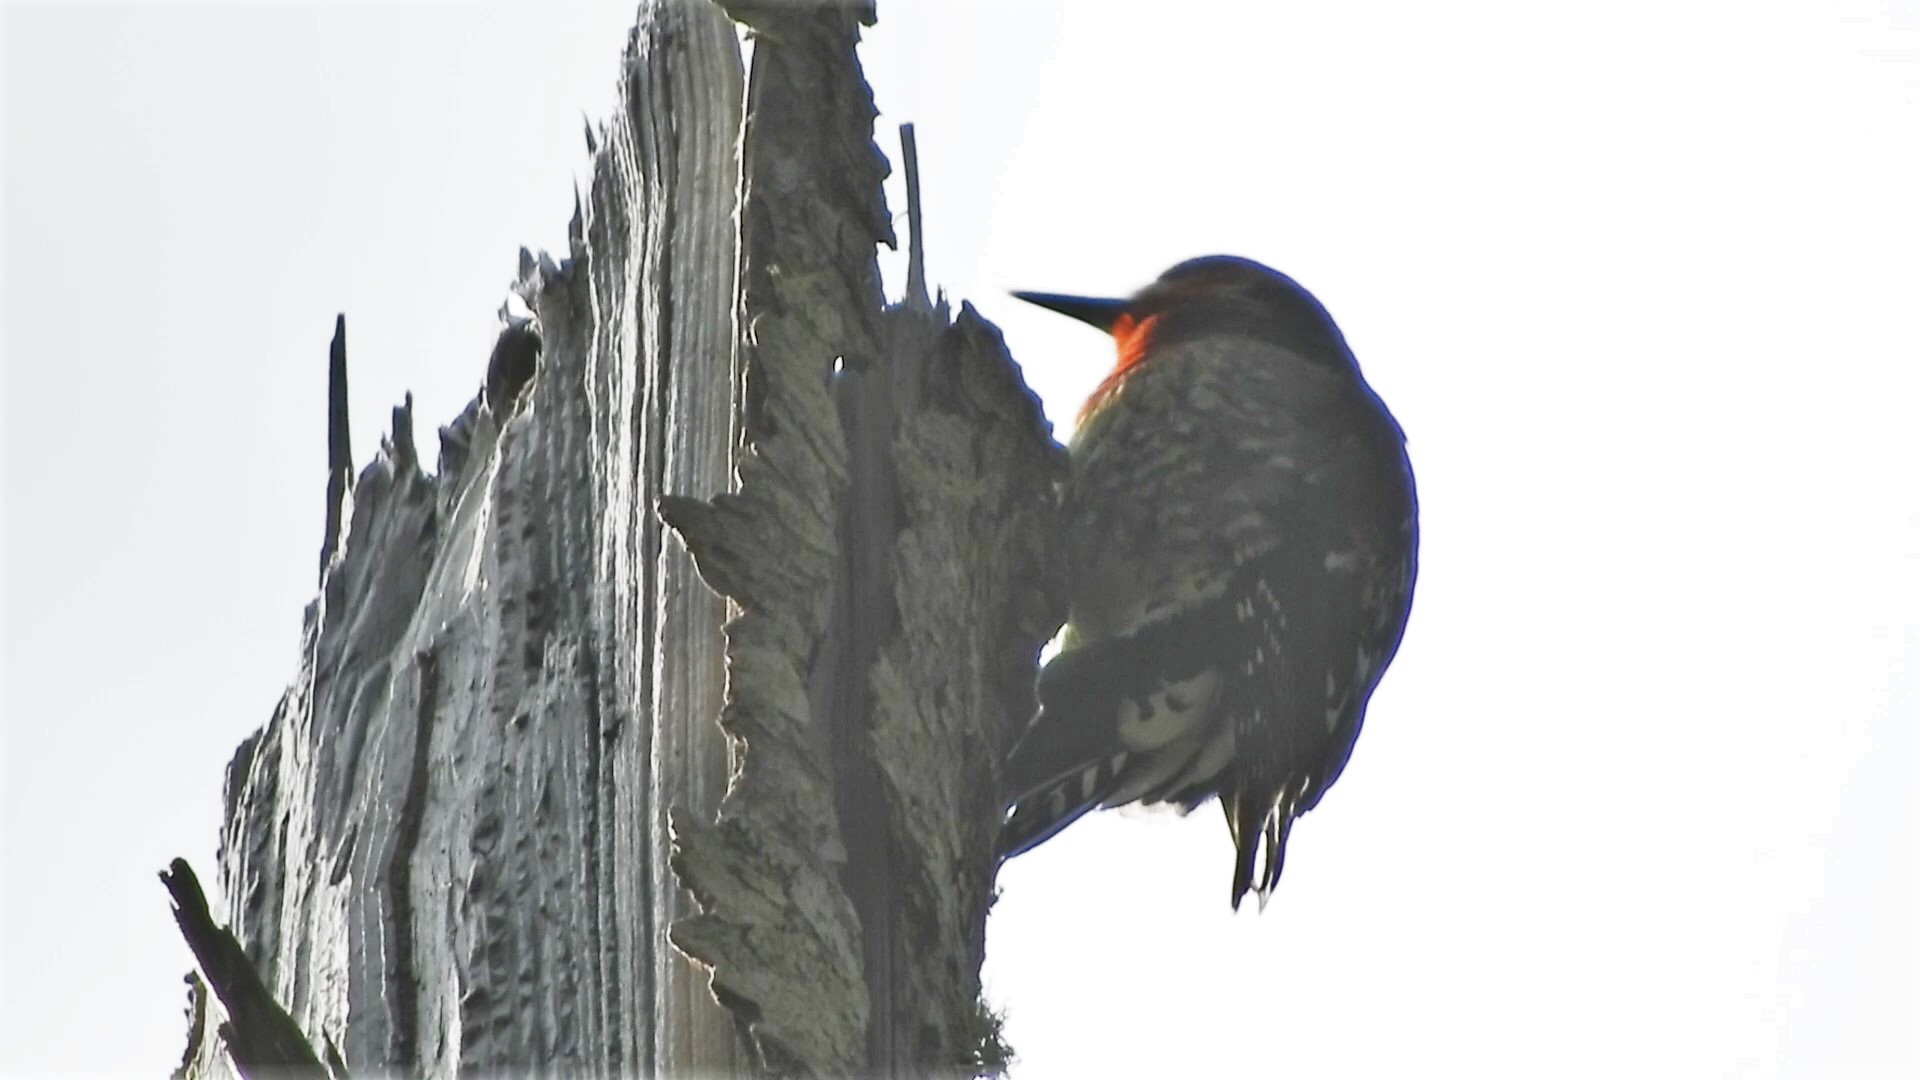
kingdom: Animalia
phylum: Chordata
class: Aves
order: Piciformes
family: Picidae
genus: Sphyrapicus
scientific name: Sphyrapicus ruber
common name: Red-breasted sapsucker
